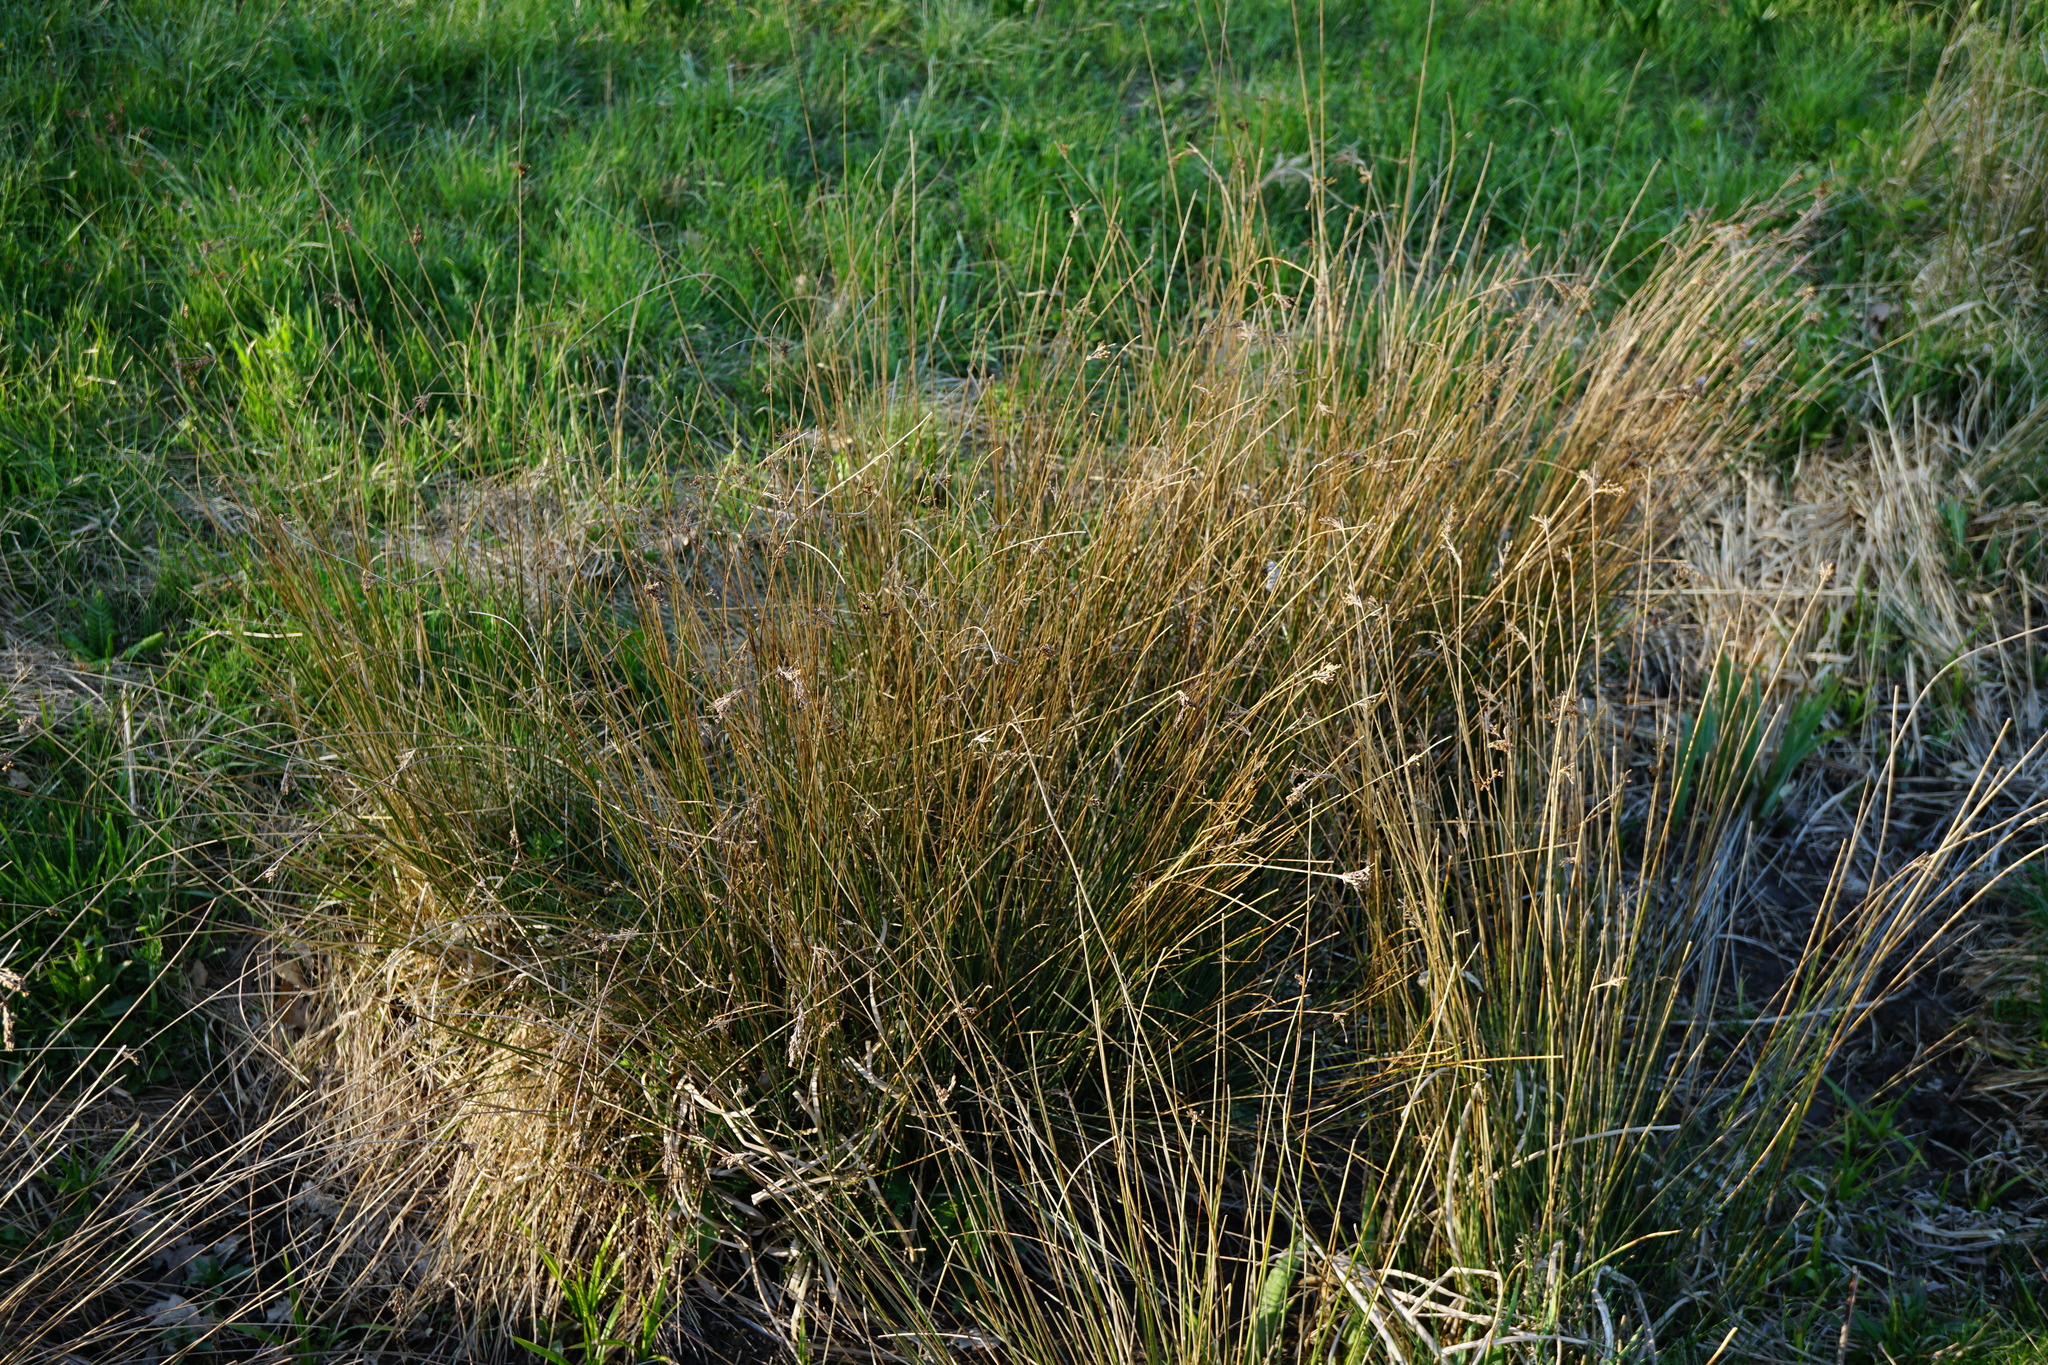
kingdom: Plantae
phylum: Tracheophyta
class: Liliopsida
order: Poales
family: Juncaceae
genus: Juncus
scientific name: Juncus inflexus
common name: Hard rush
